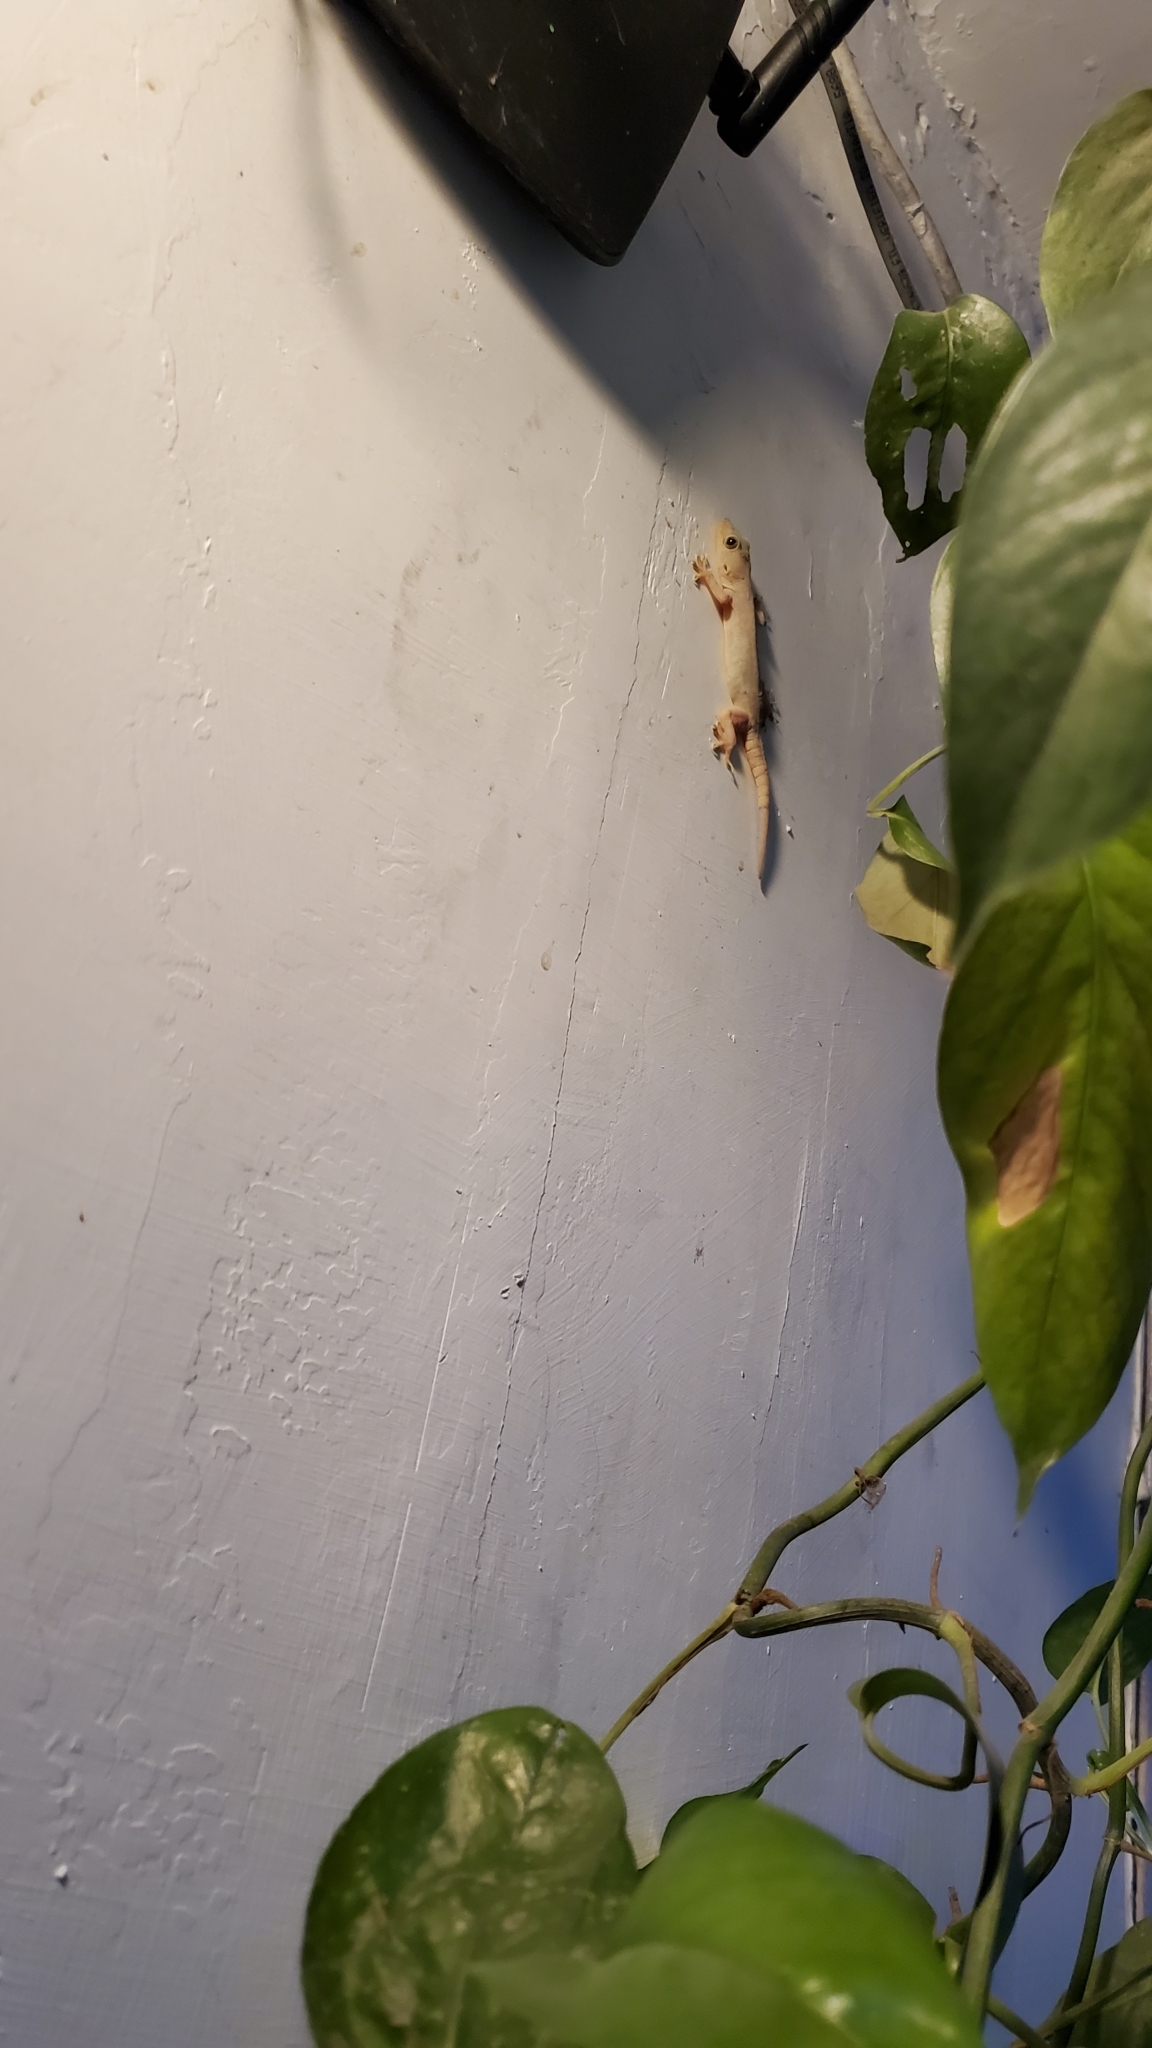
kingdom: Animalia
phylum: Chordata
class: Squamata
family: Gekkonidae
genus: Hemidactylus
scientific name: Hemidactylus flaviviridis
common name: Northern house gecko
